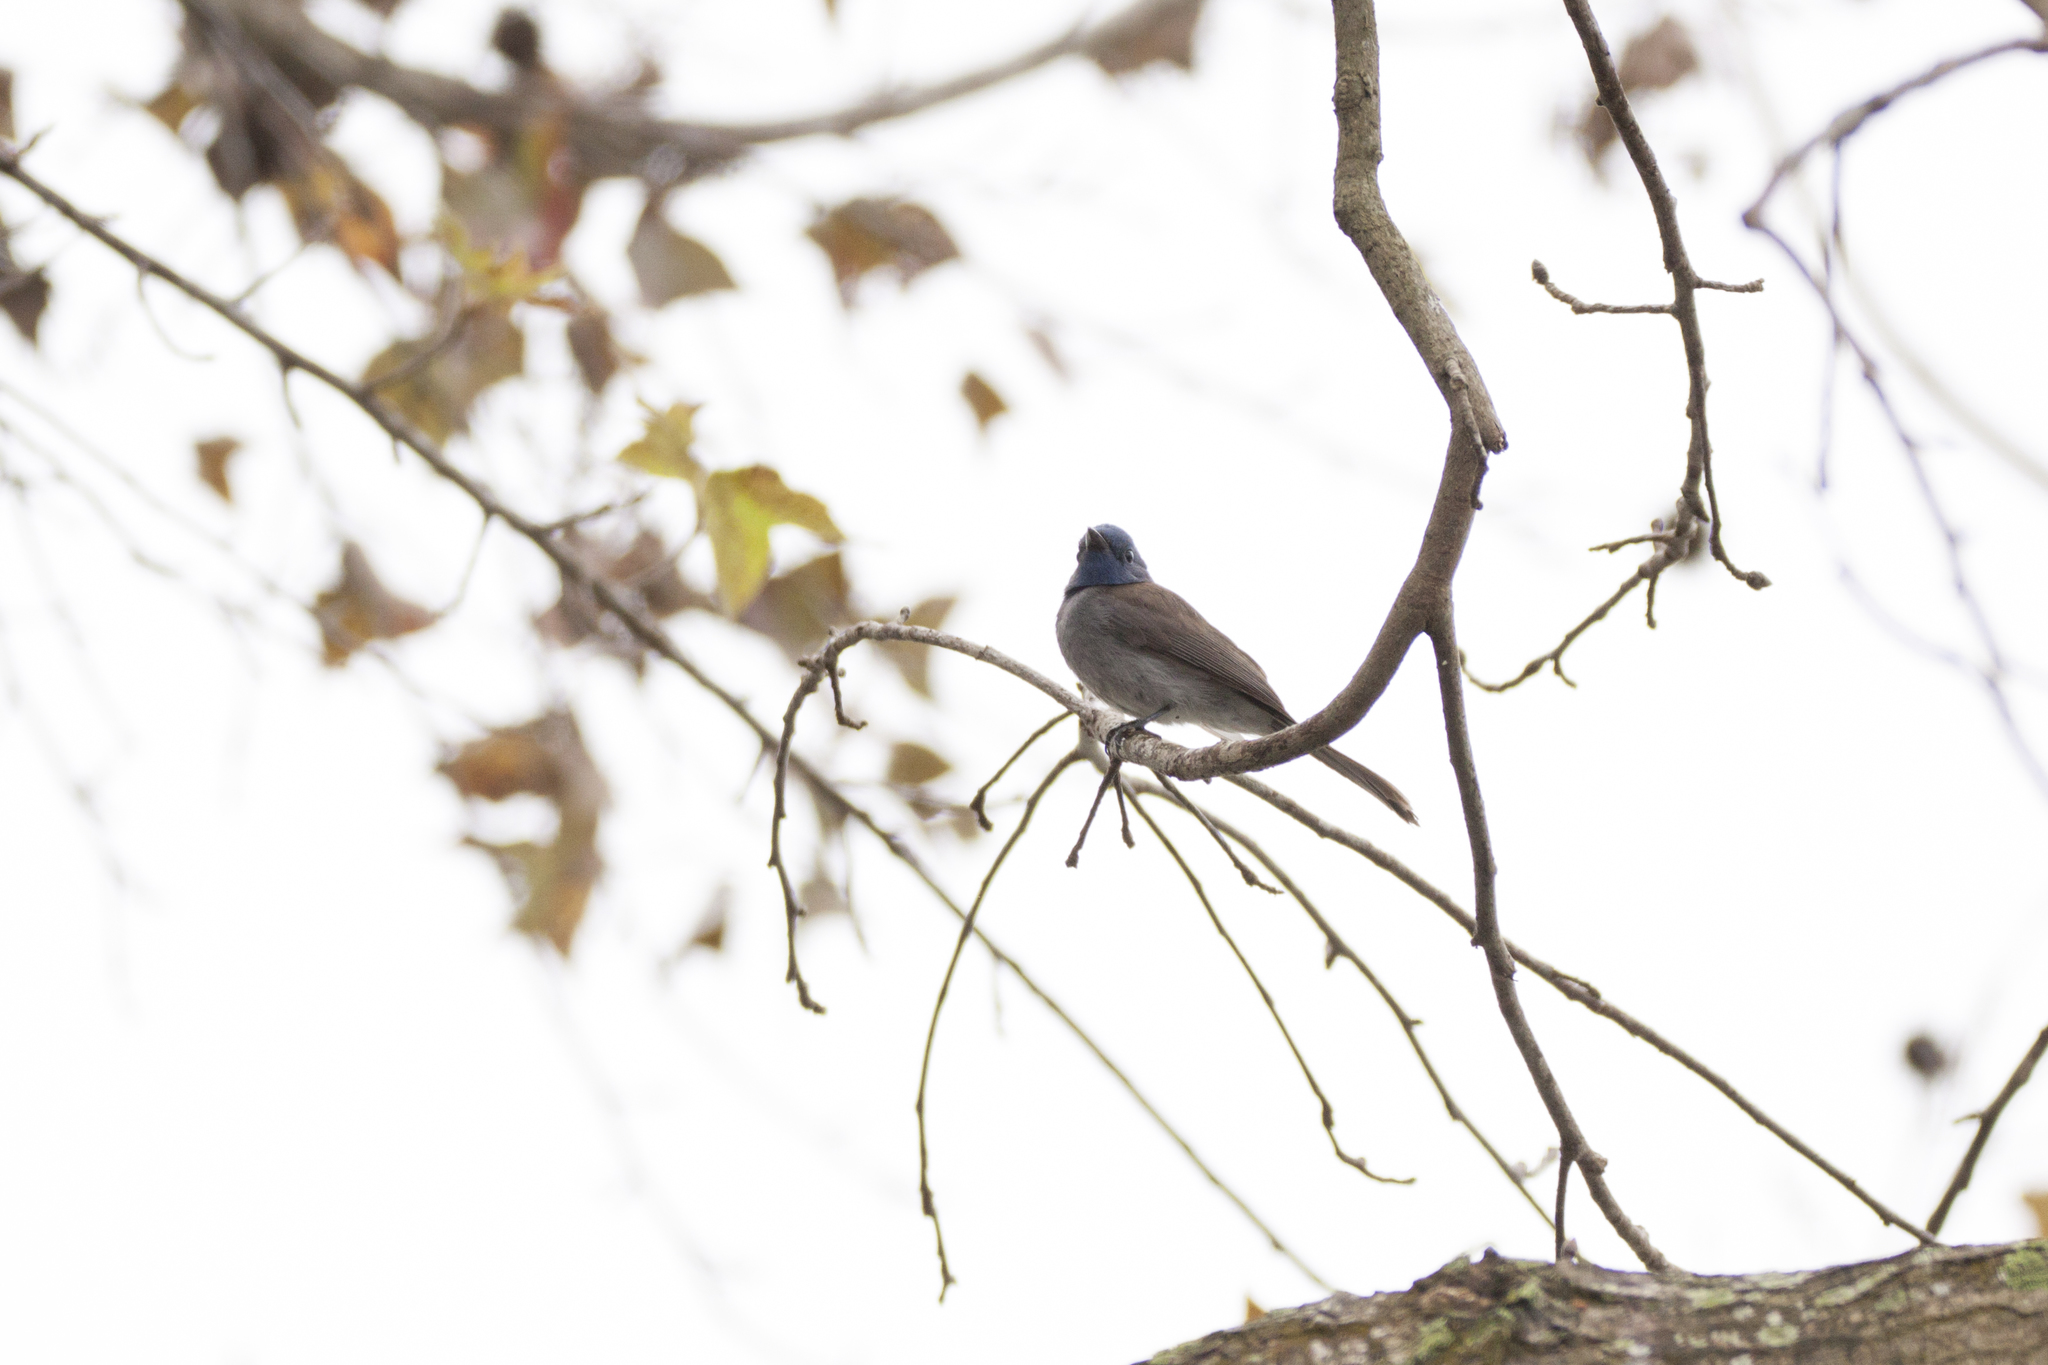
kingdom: Animalia
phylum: Chordata
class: Aves
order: Passeriformes
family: Monarchidae
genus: Hypothymis
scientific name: Hypothymis azurea
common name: Black-naped monarch
